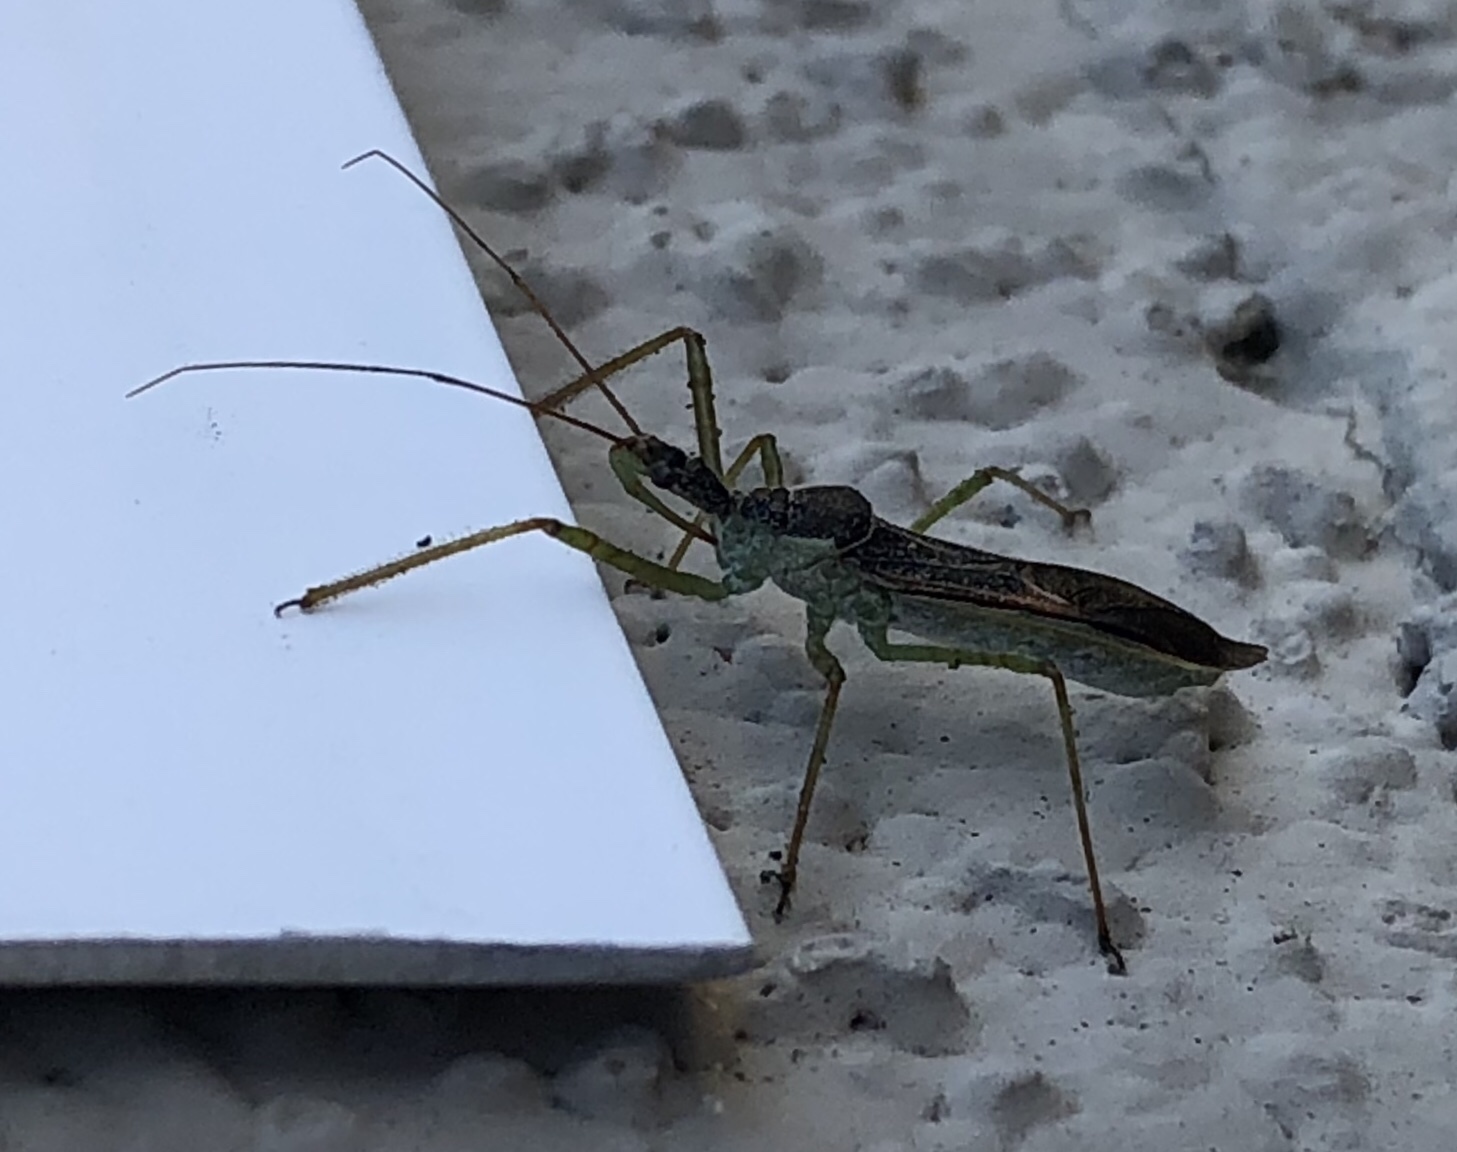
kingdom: Animalia
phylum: Arthropoda
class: Insecta
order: Hemiptera
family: Reduviidae
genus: Zelus
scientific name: Zelus renardii
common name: Assassin bug
